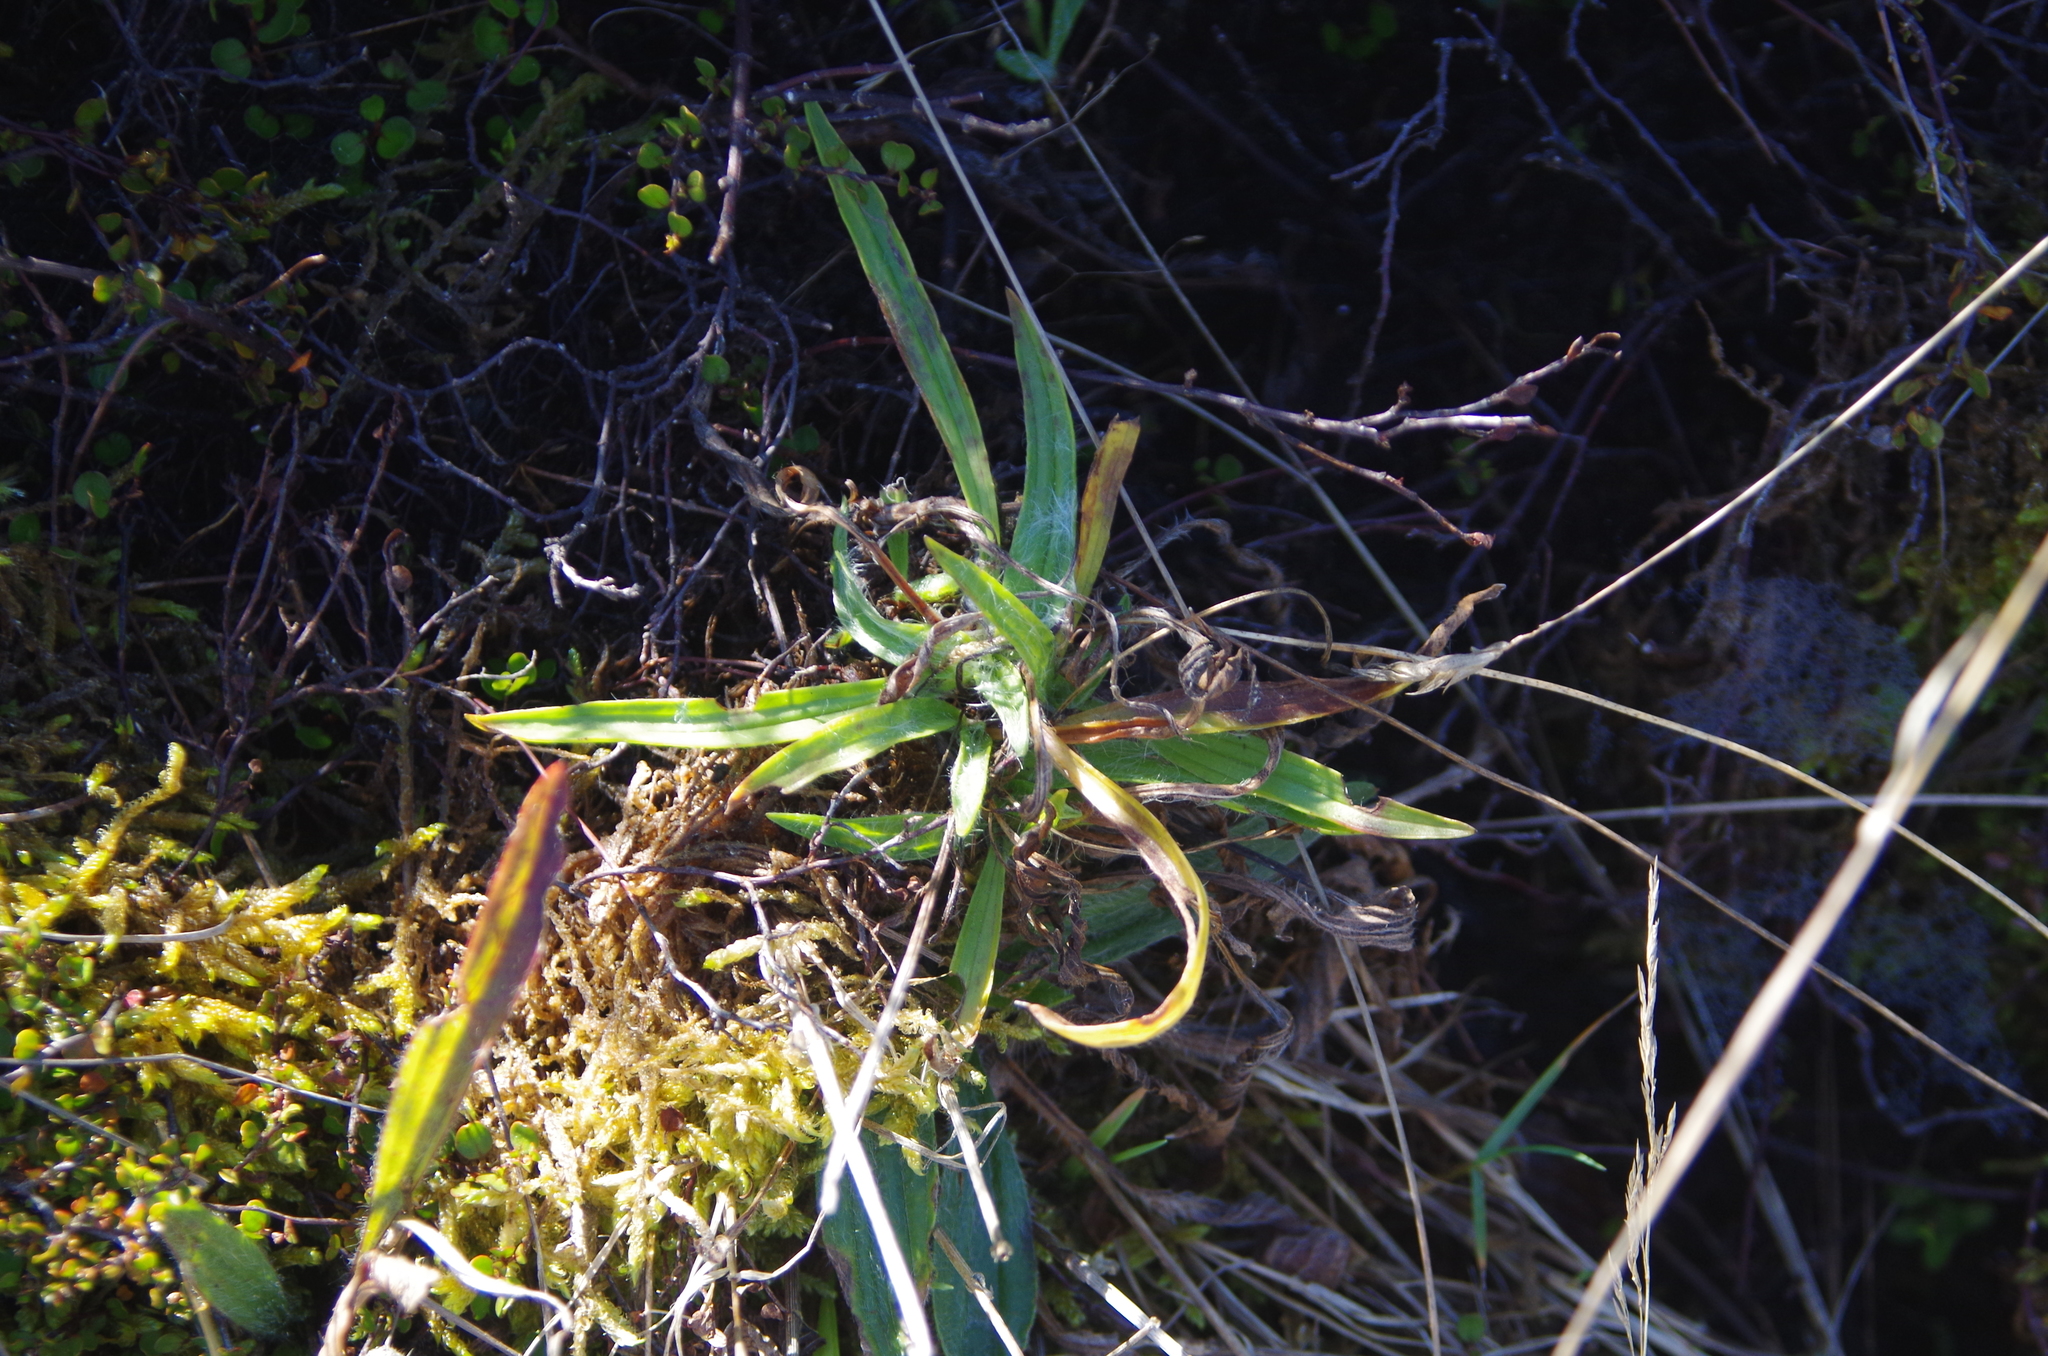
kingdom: Plantae
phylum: Tracheophyta
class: Magnoliopsida
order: Lamiales
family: Plantaginaceae
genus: Plantago
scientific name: Plantago lanceolata
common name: Ribwort plantain
